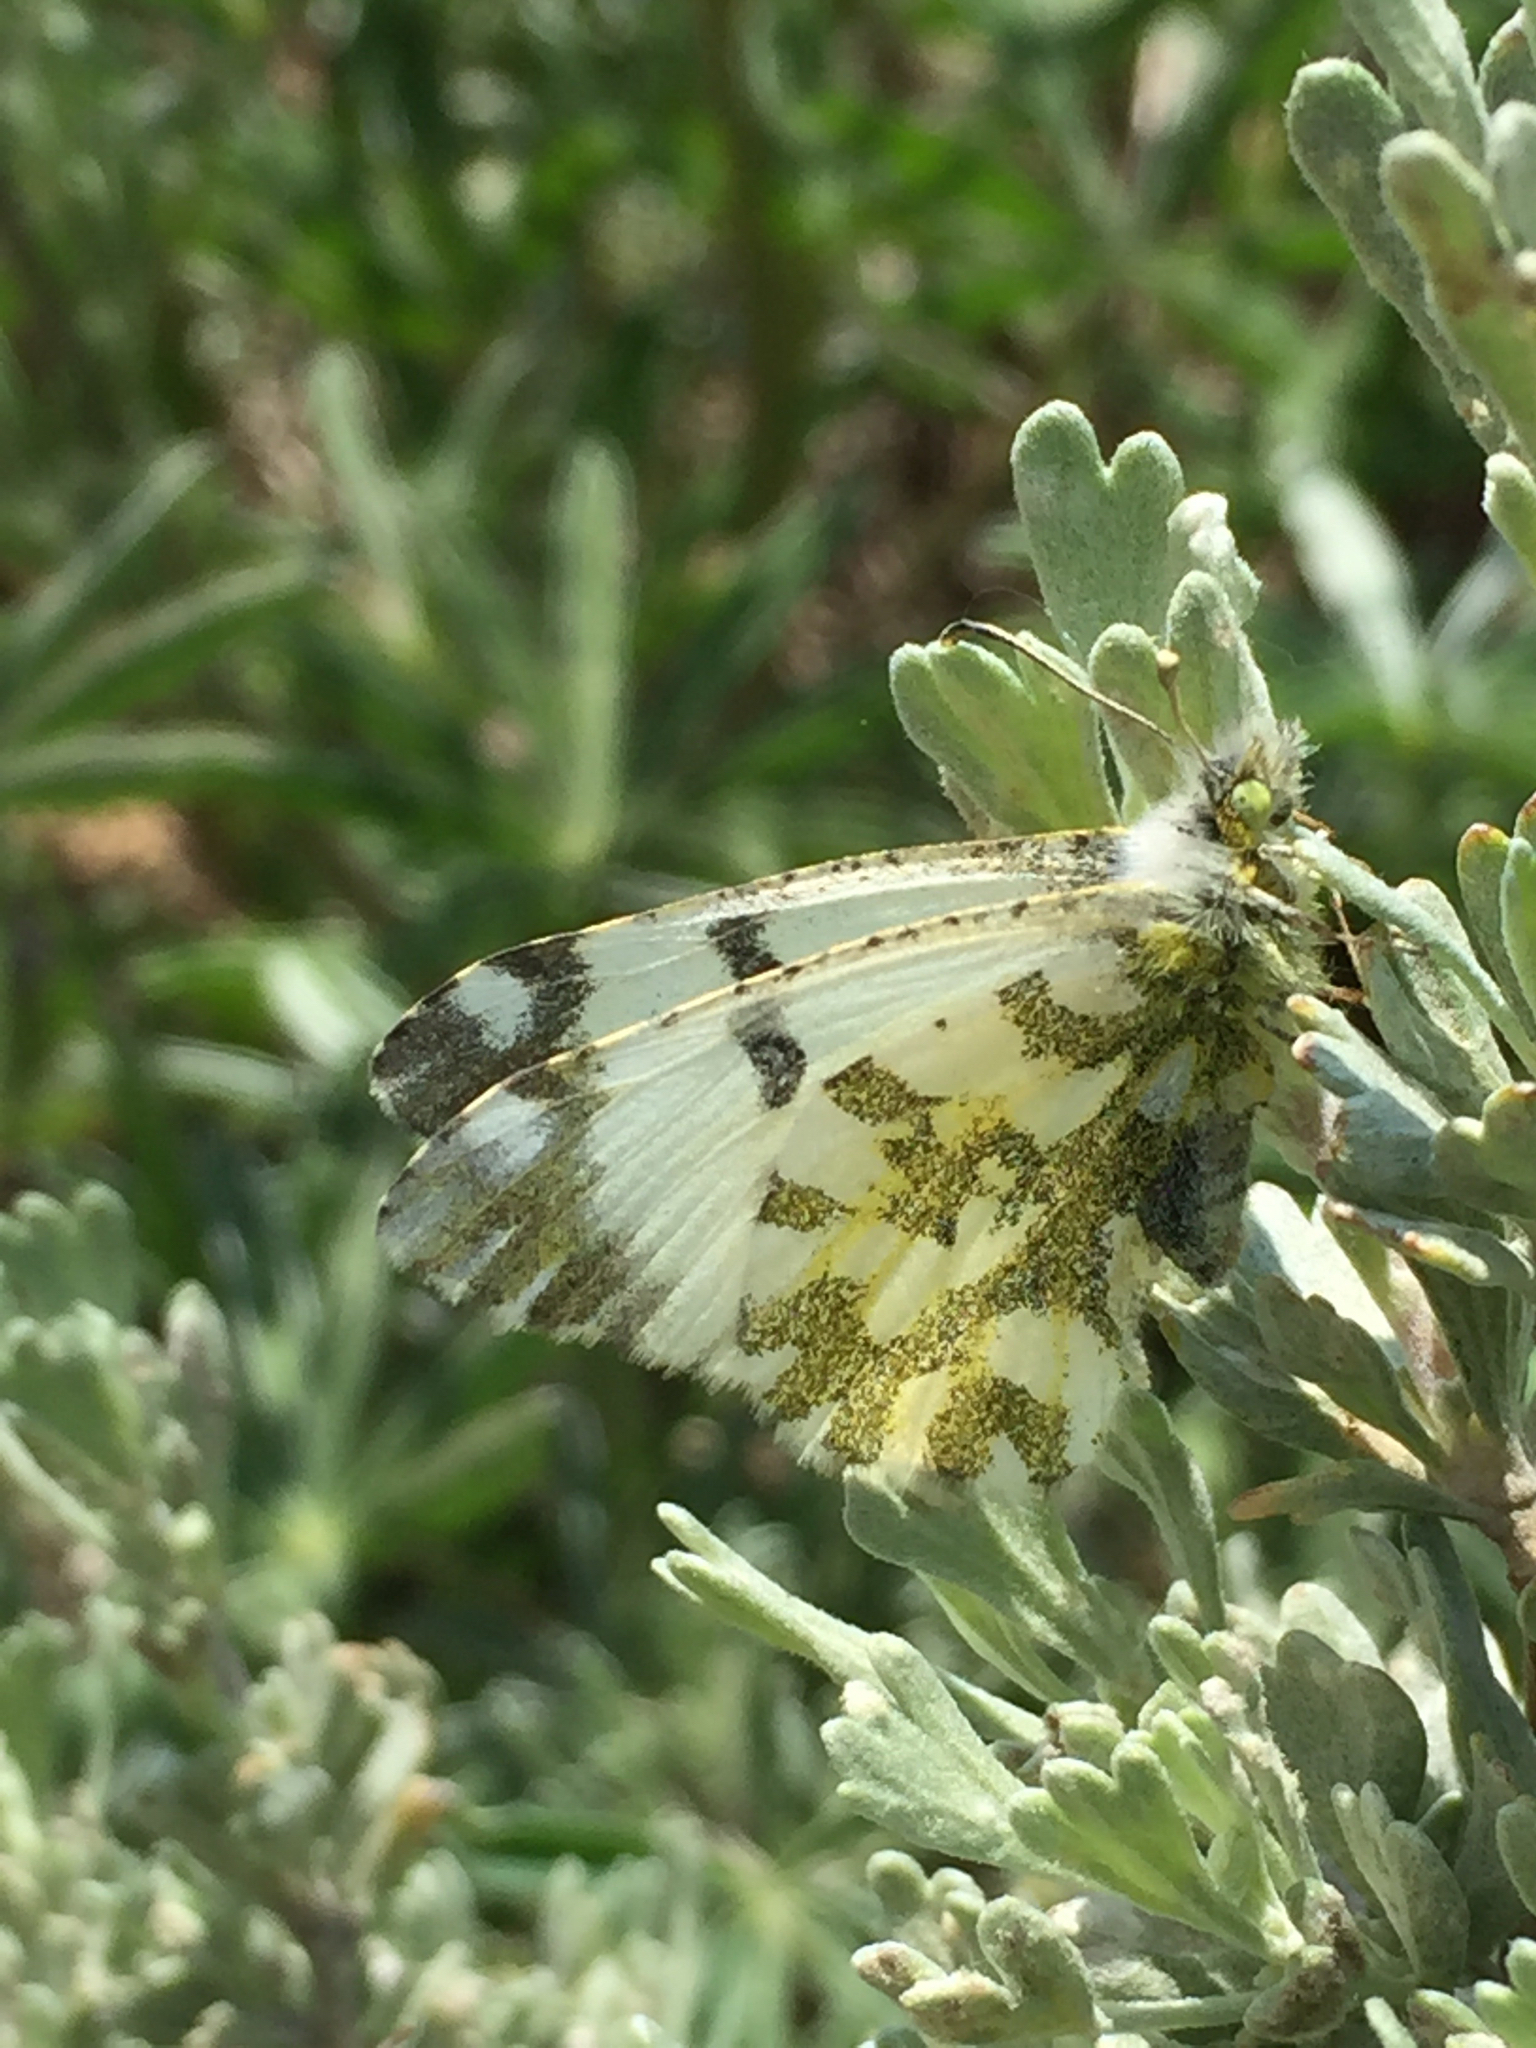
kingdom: Animalia
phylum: Arthropoda
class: Insecta
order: Lepidoptera
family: Pieridae
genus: Euchloe
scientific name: Euchloe ausonides
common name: Creamy marblewing
